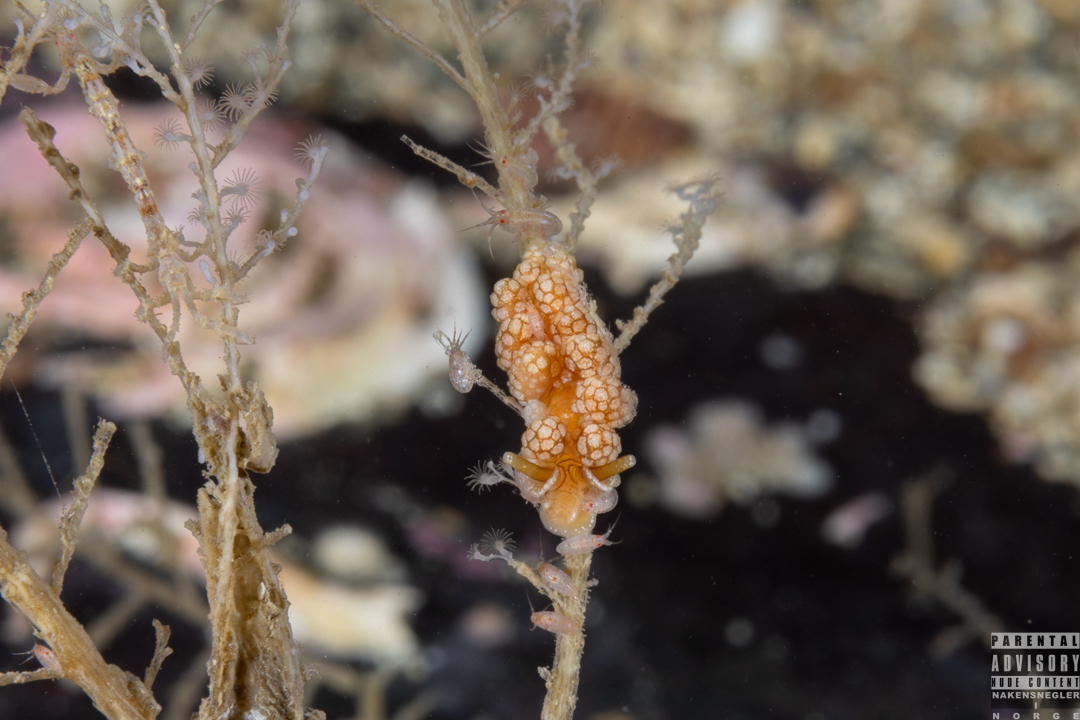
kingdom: Animalia
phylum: Mollusca
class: Gastropoda
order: Nudibranchia
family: Dotidae
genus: Doto
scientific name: Doto fragilis
